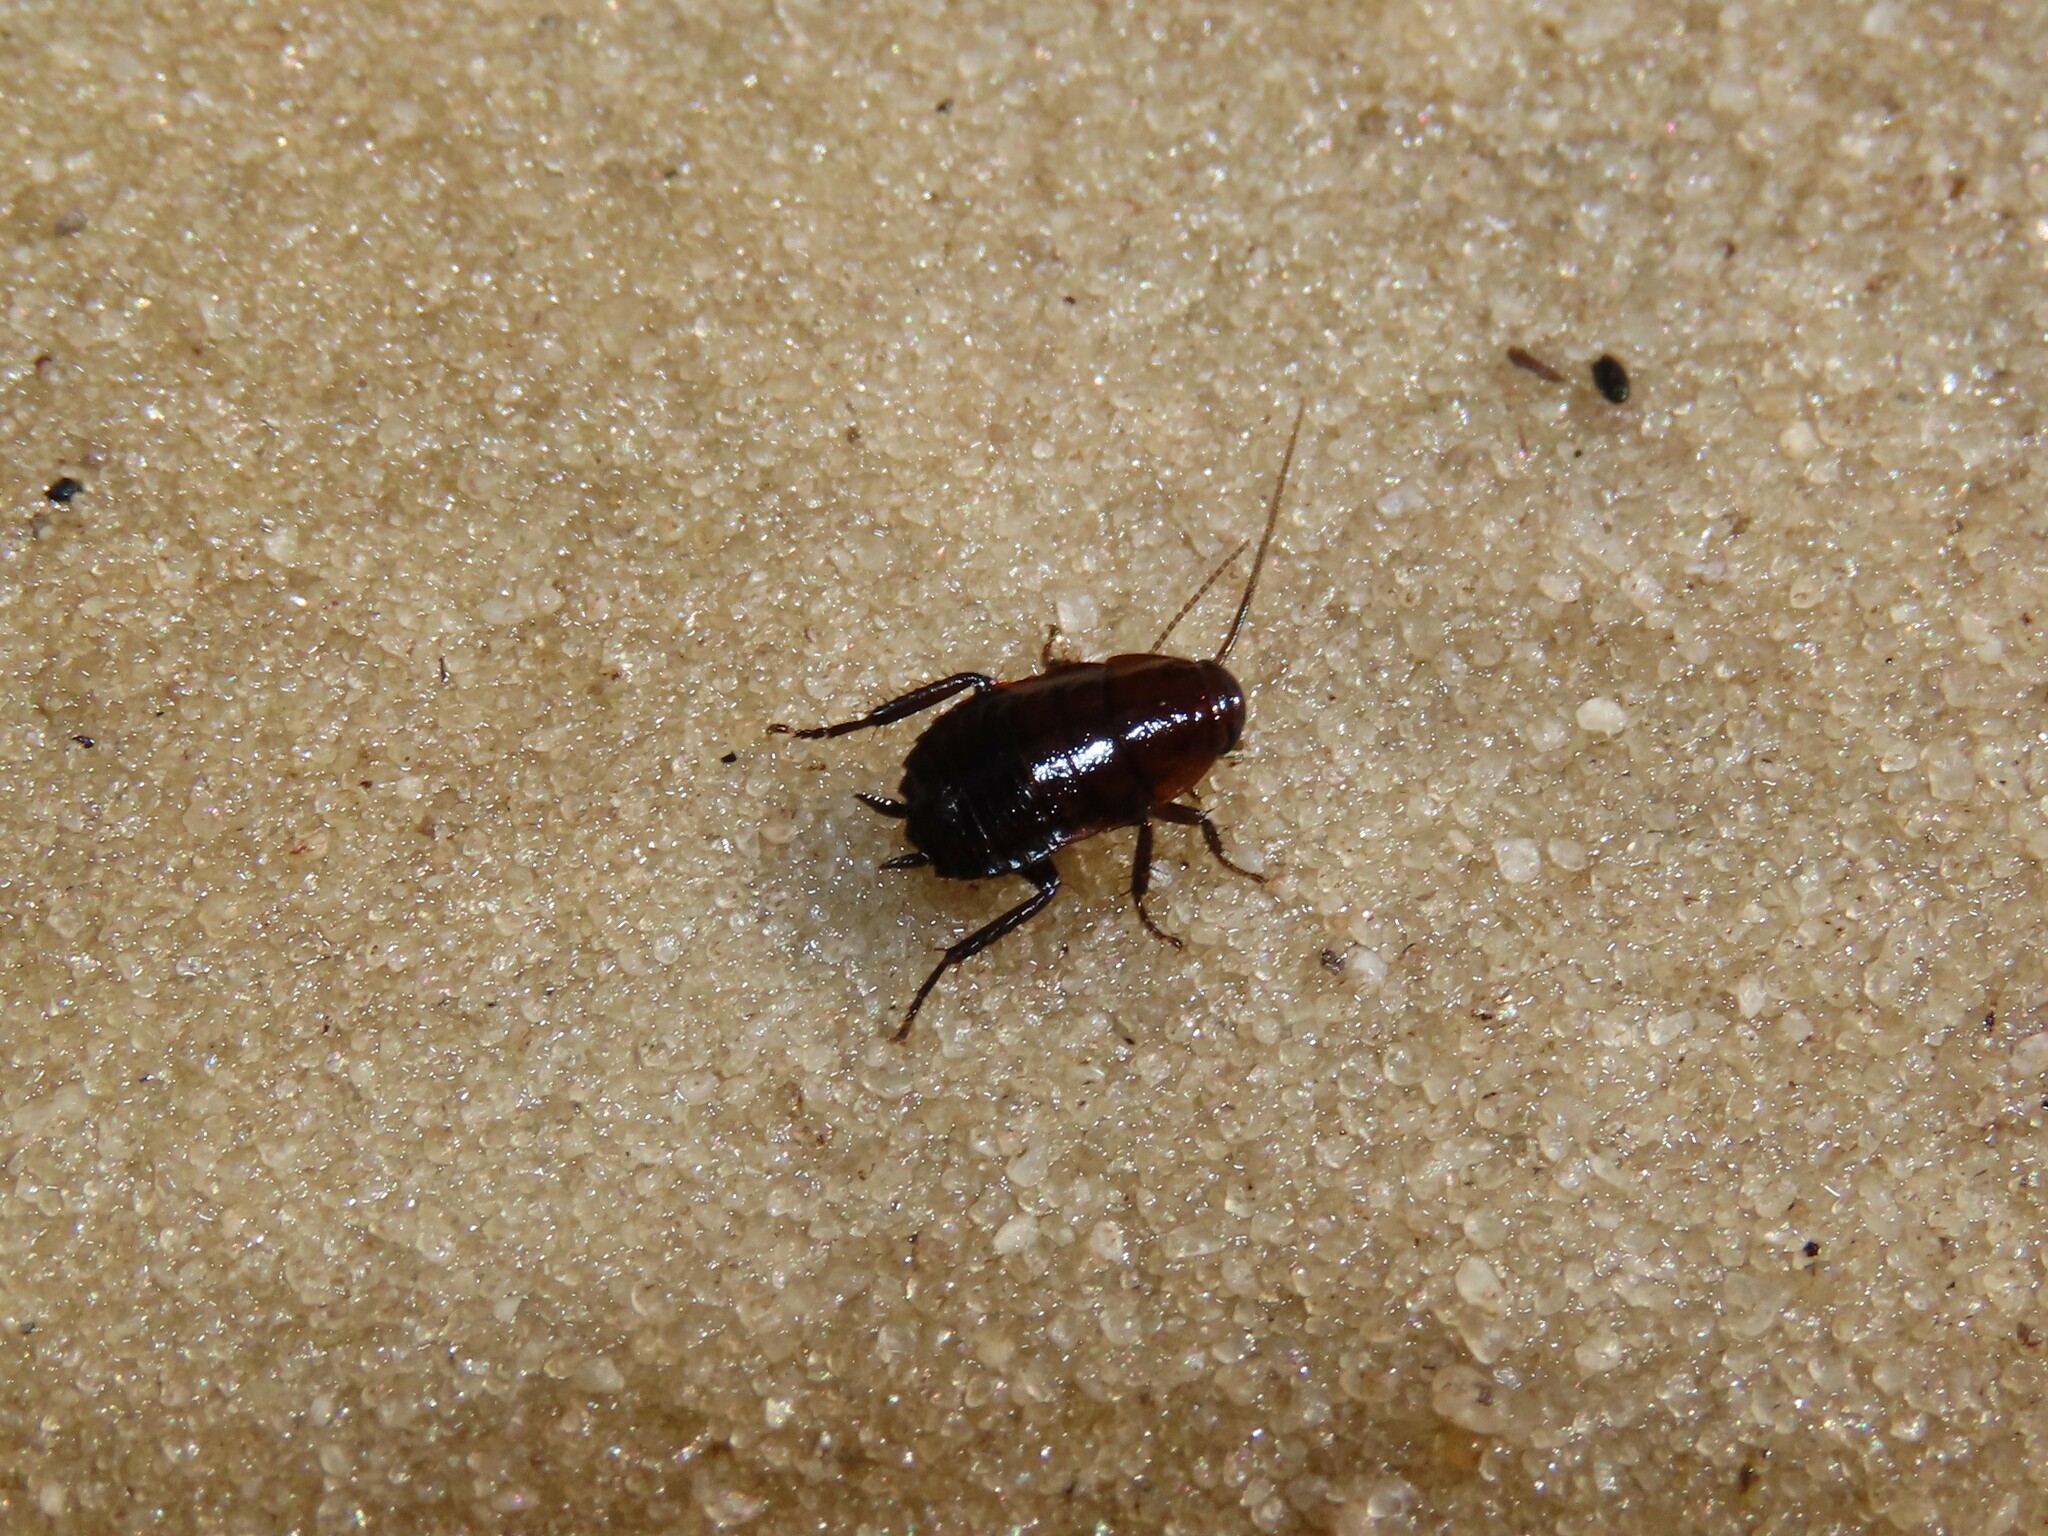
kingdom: Animalia
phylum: Arthropoda
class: Insecta
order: Blattodea
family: Blattidae
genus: Eurycotis
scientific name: Eurycotis floridana
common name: Florida cockroach
